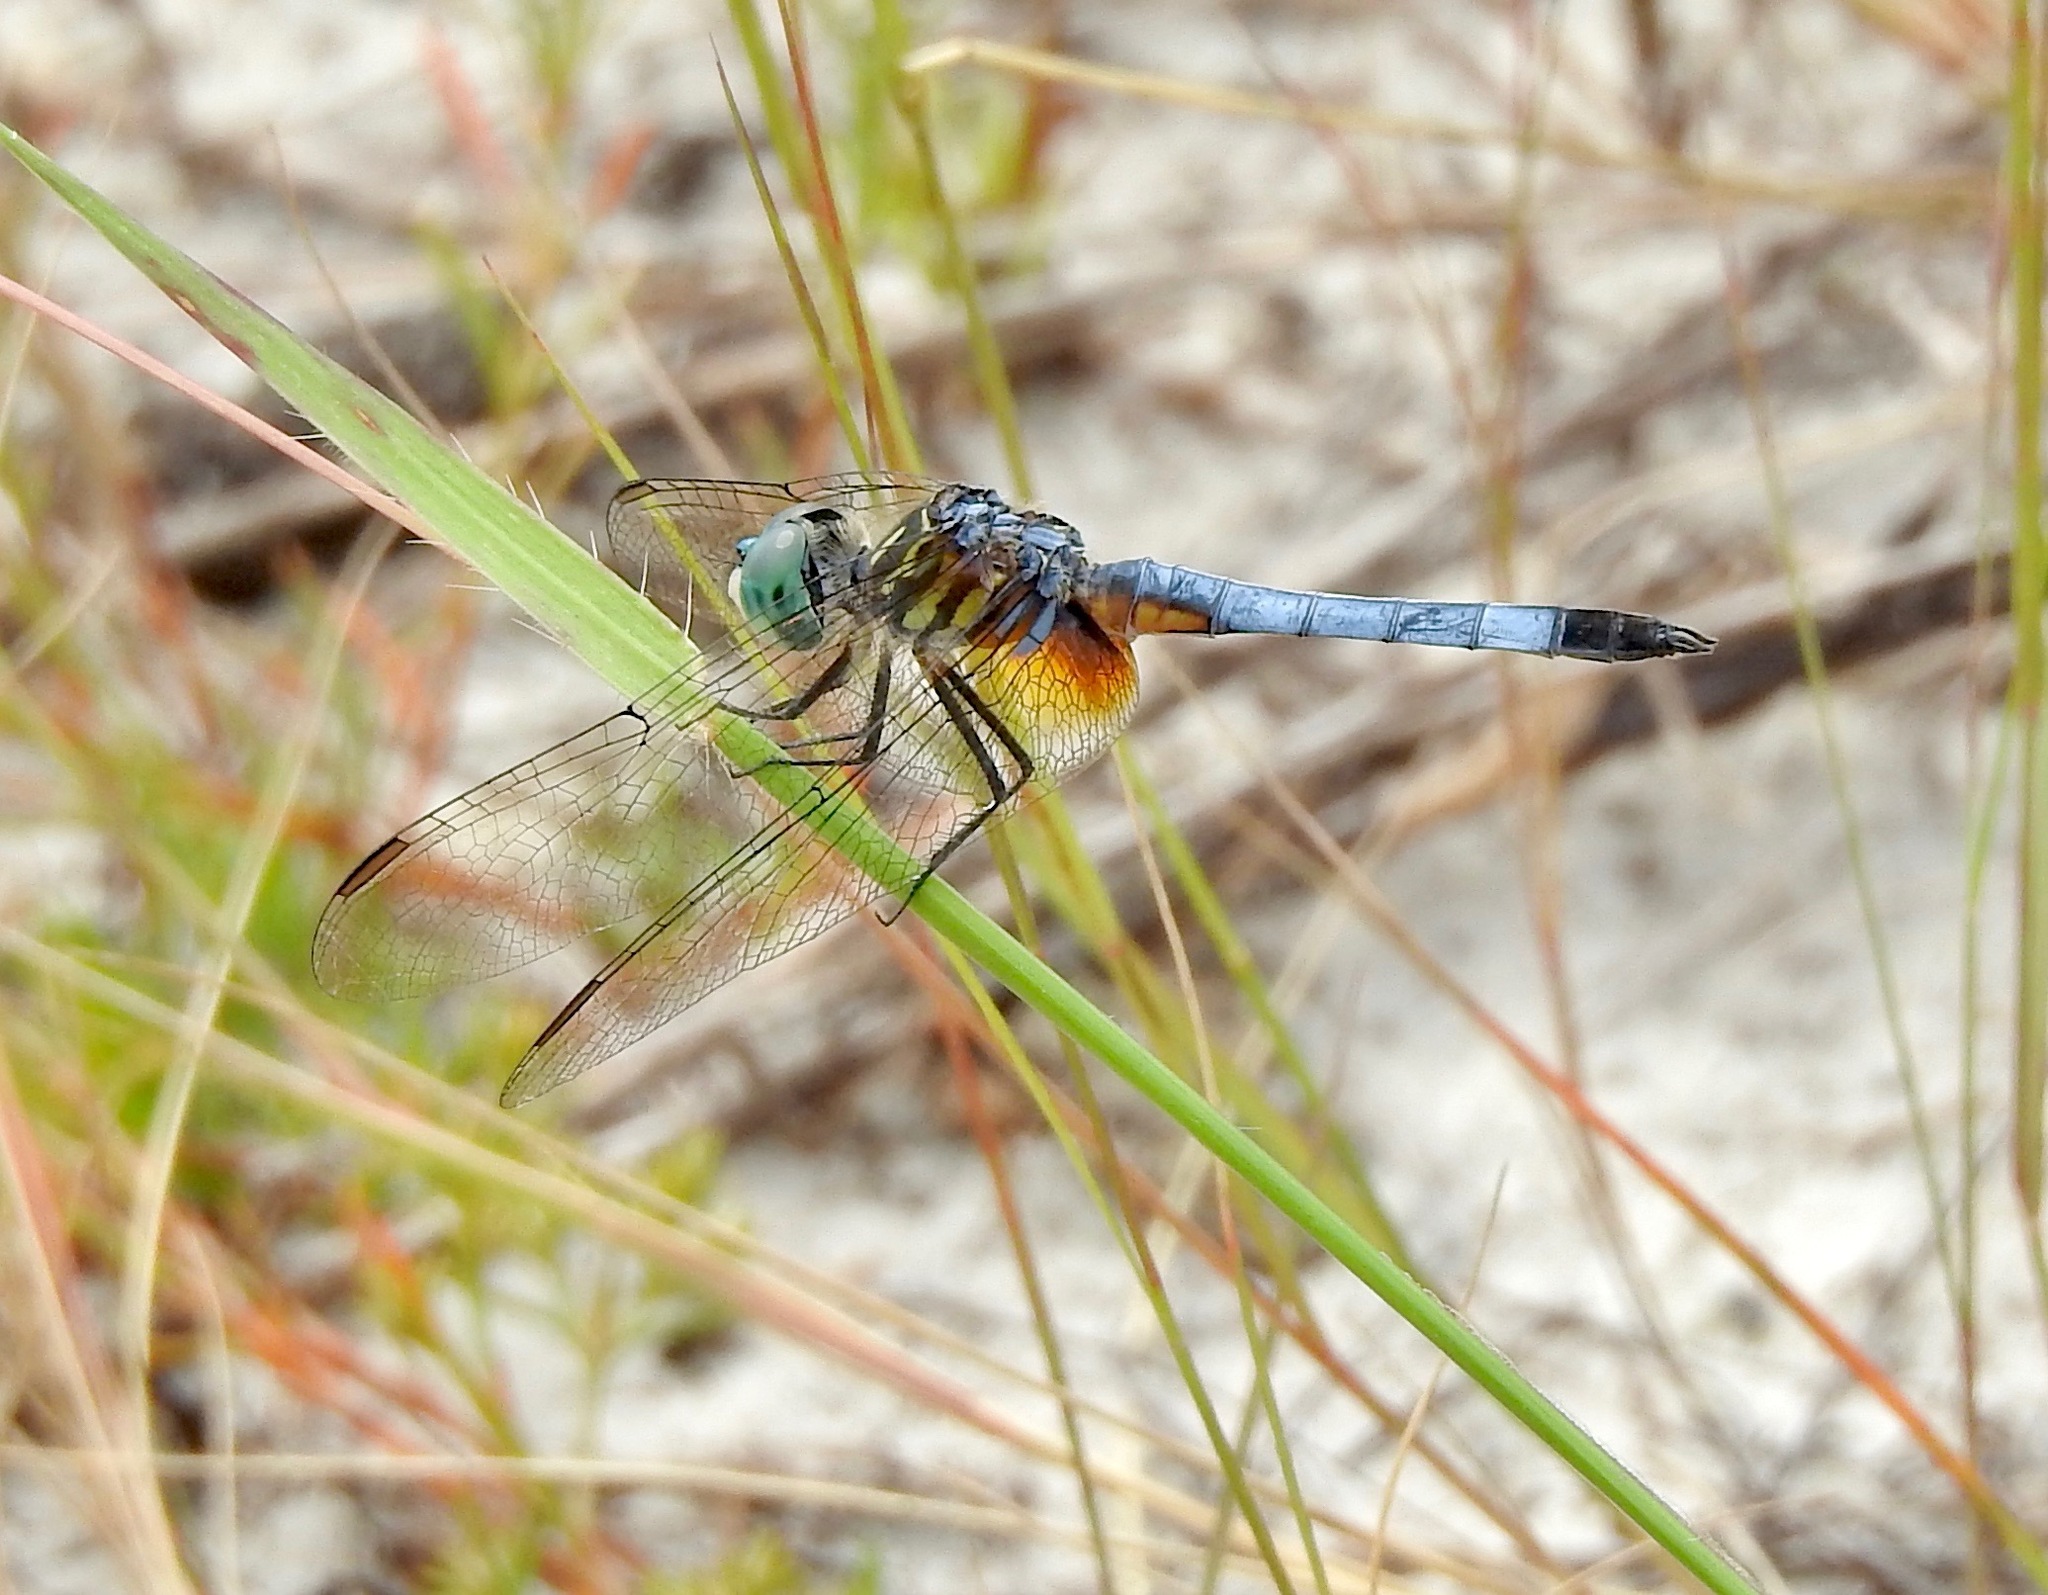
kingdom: Animalia
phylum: Arthropoda
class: Insecta
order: Odonata
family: Libellulidae
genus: Pachydiplax
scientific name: Pachydiplax longipennis
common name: Blue dasher
